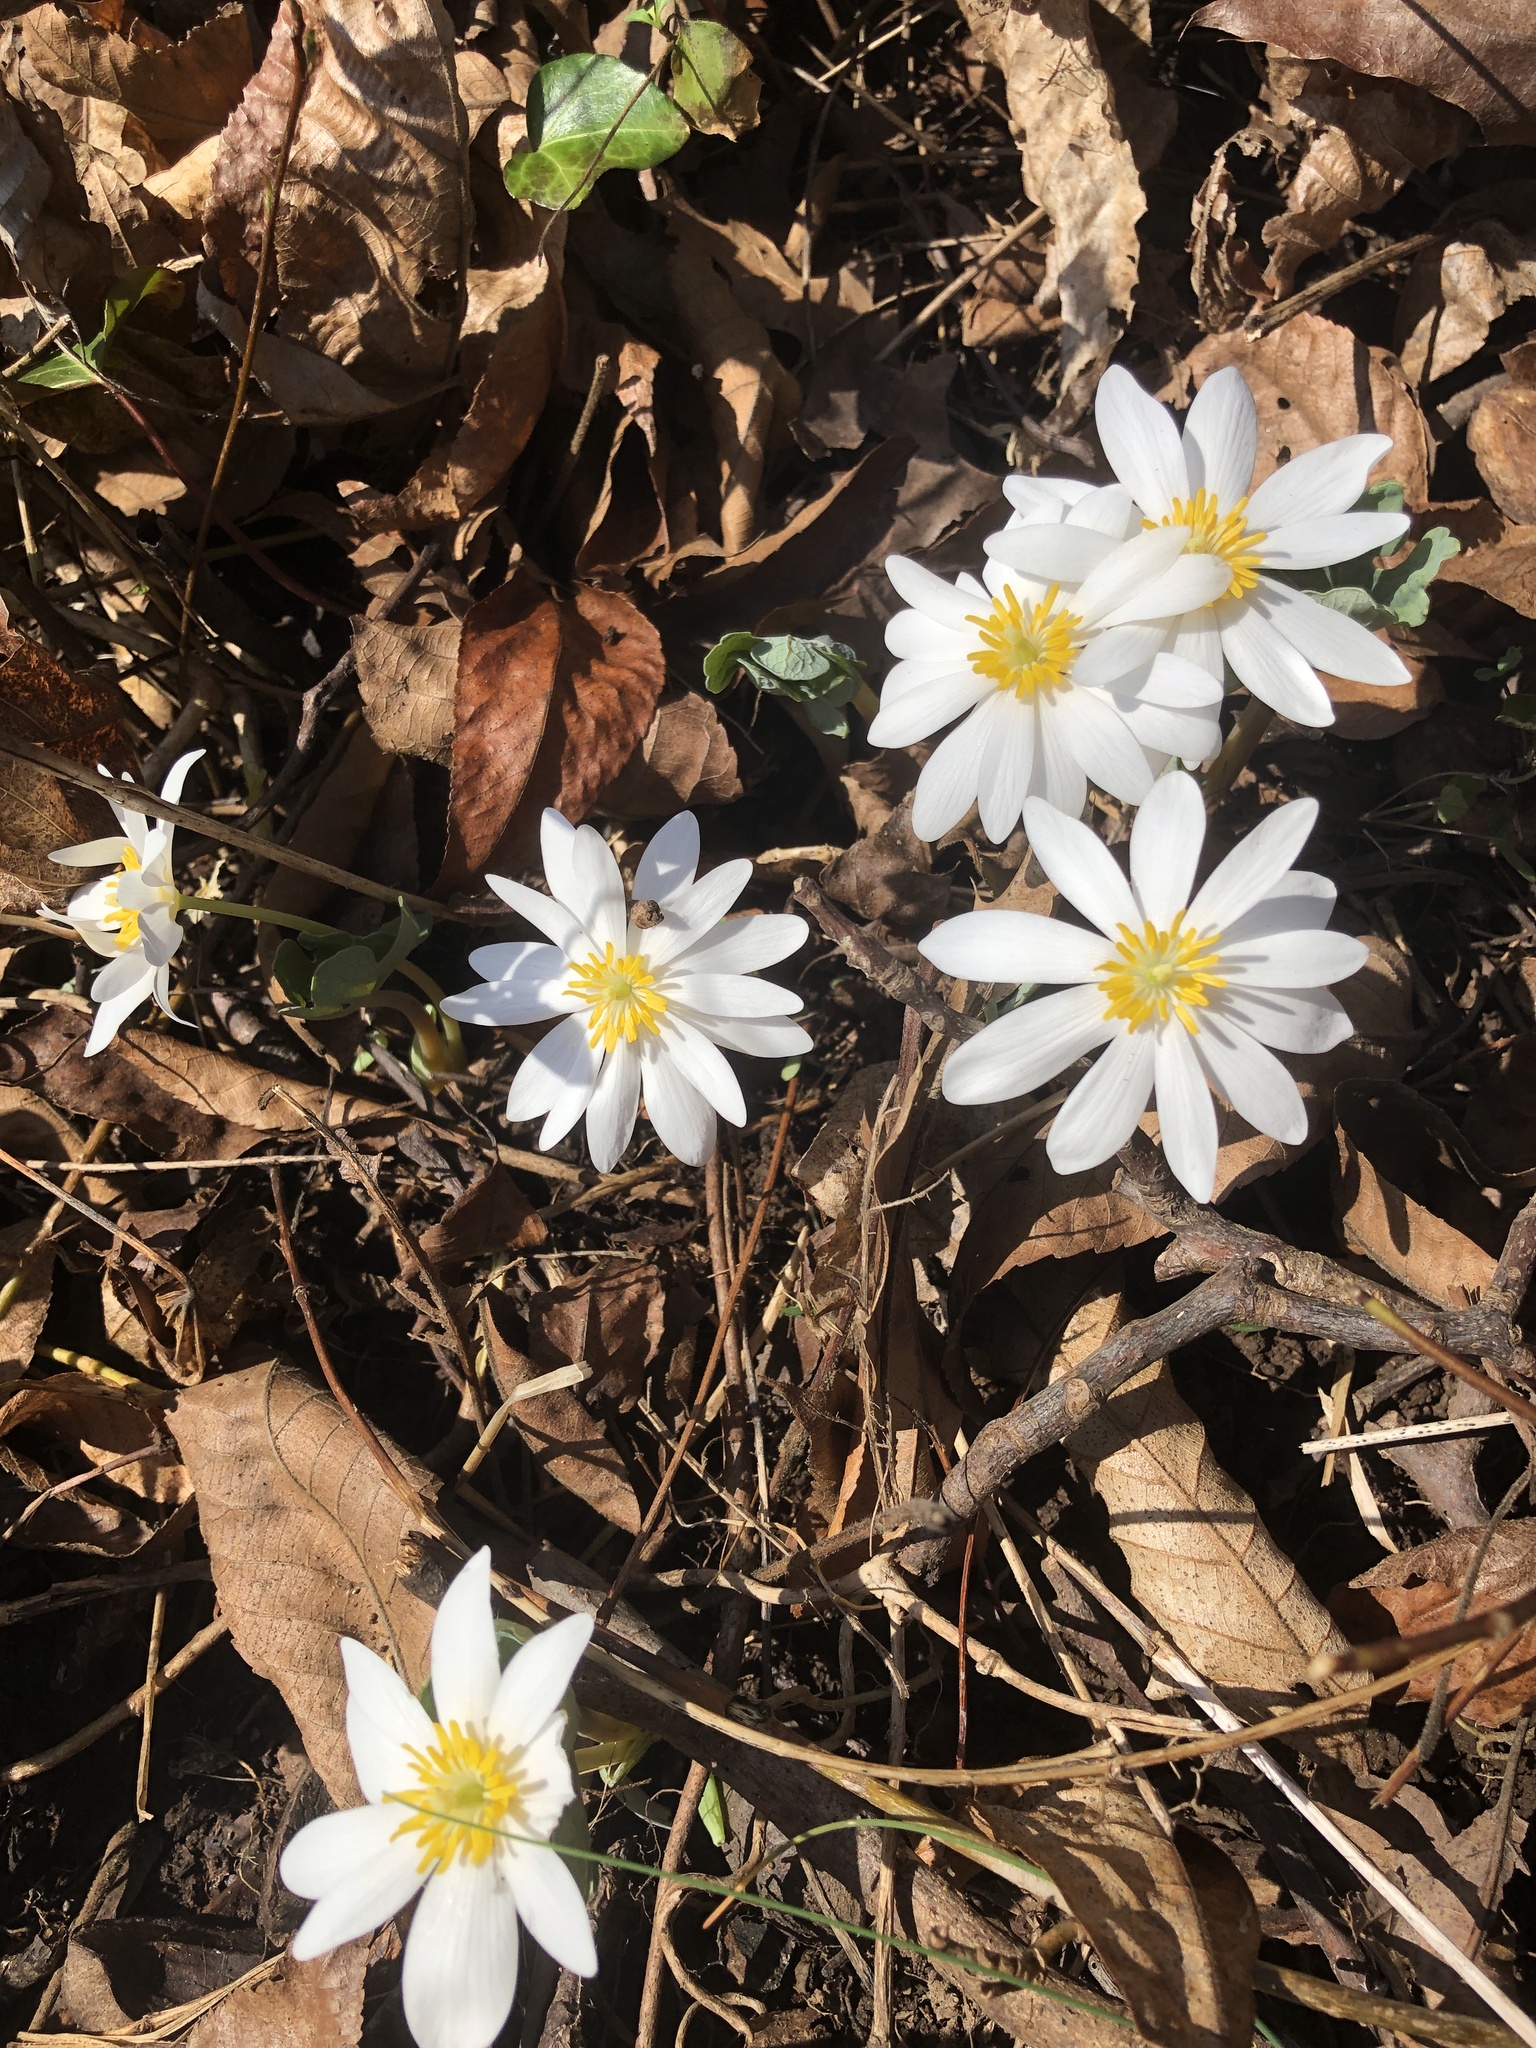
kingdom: Plantae
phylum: Tracheophyta
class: Magnoliopsida
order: Ranunculales
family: Papaveraceae
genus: Sanguinaria
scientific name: Sanguinaria canadensis
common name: Bloodroot
